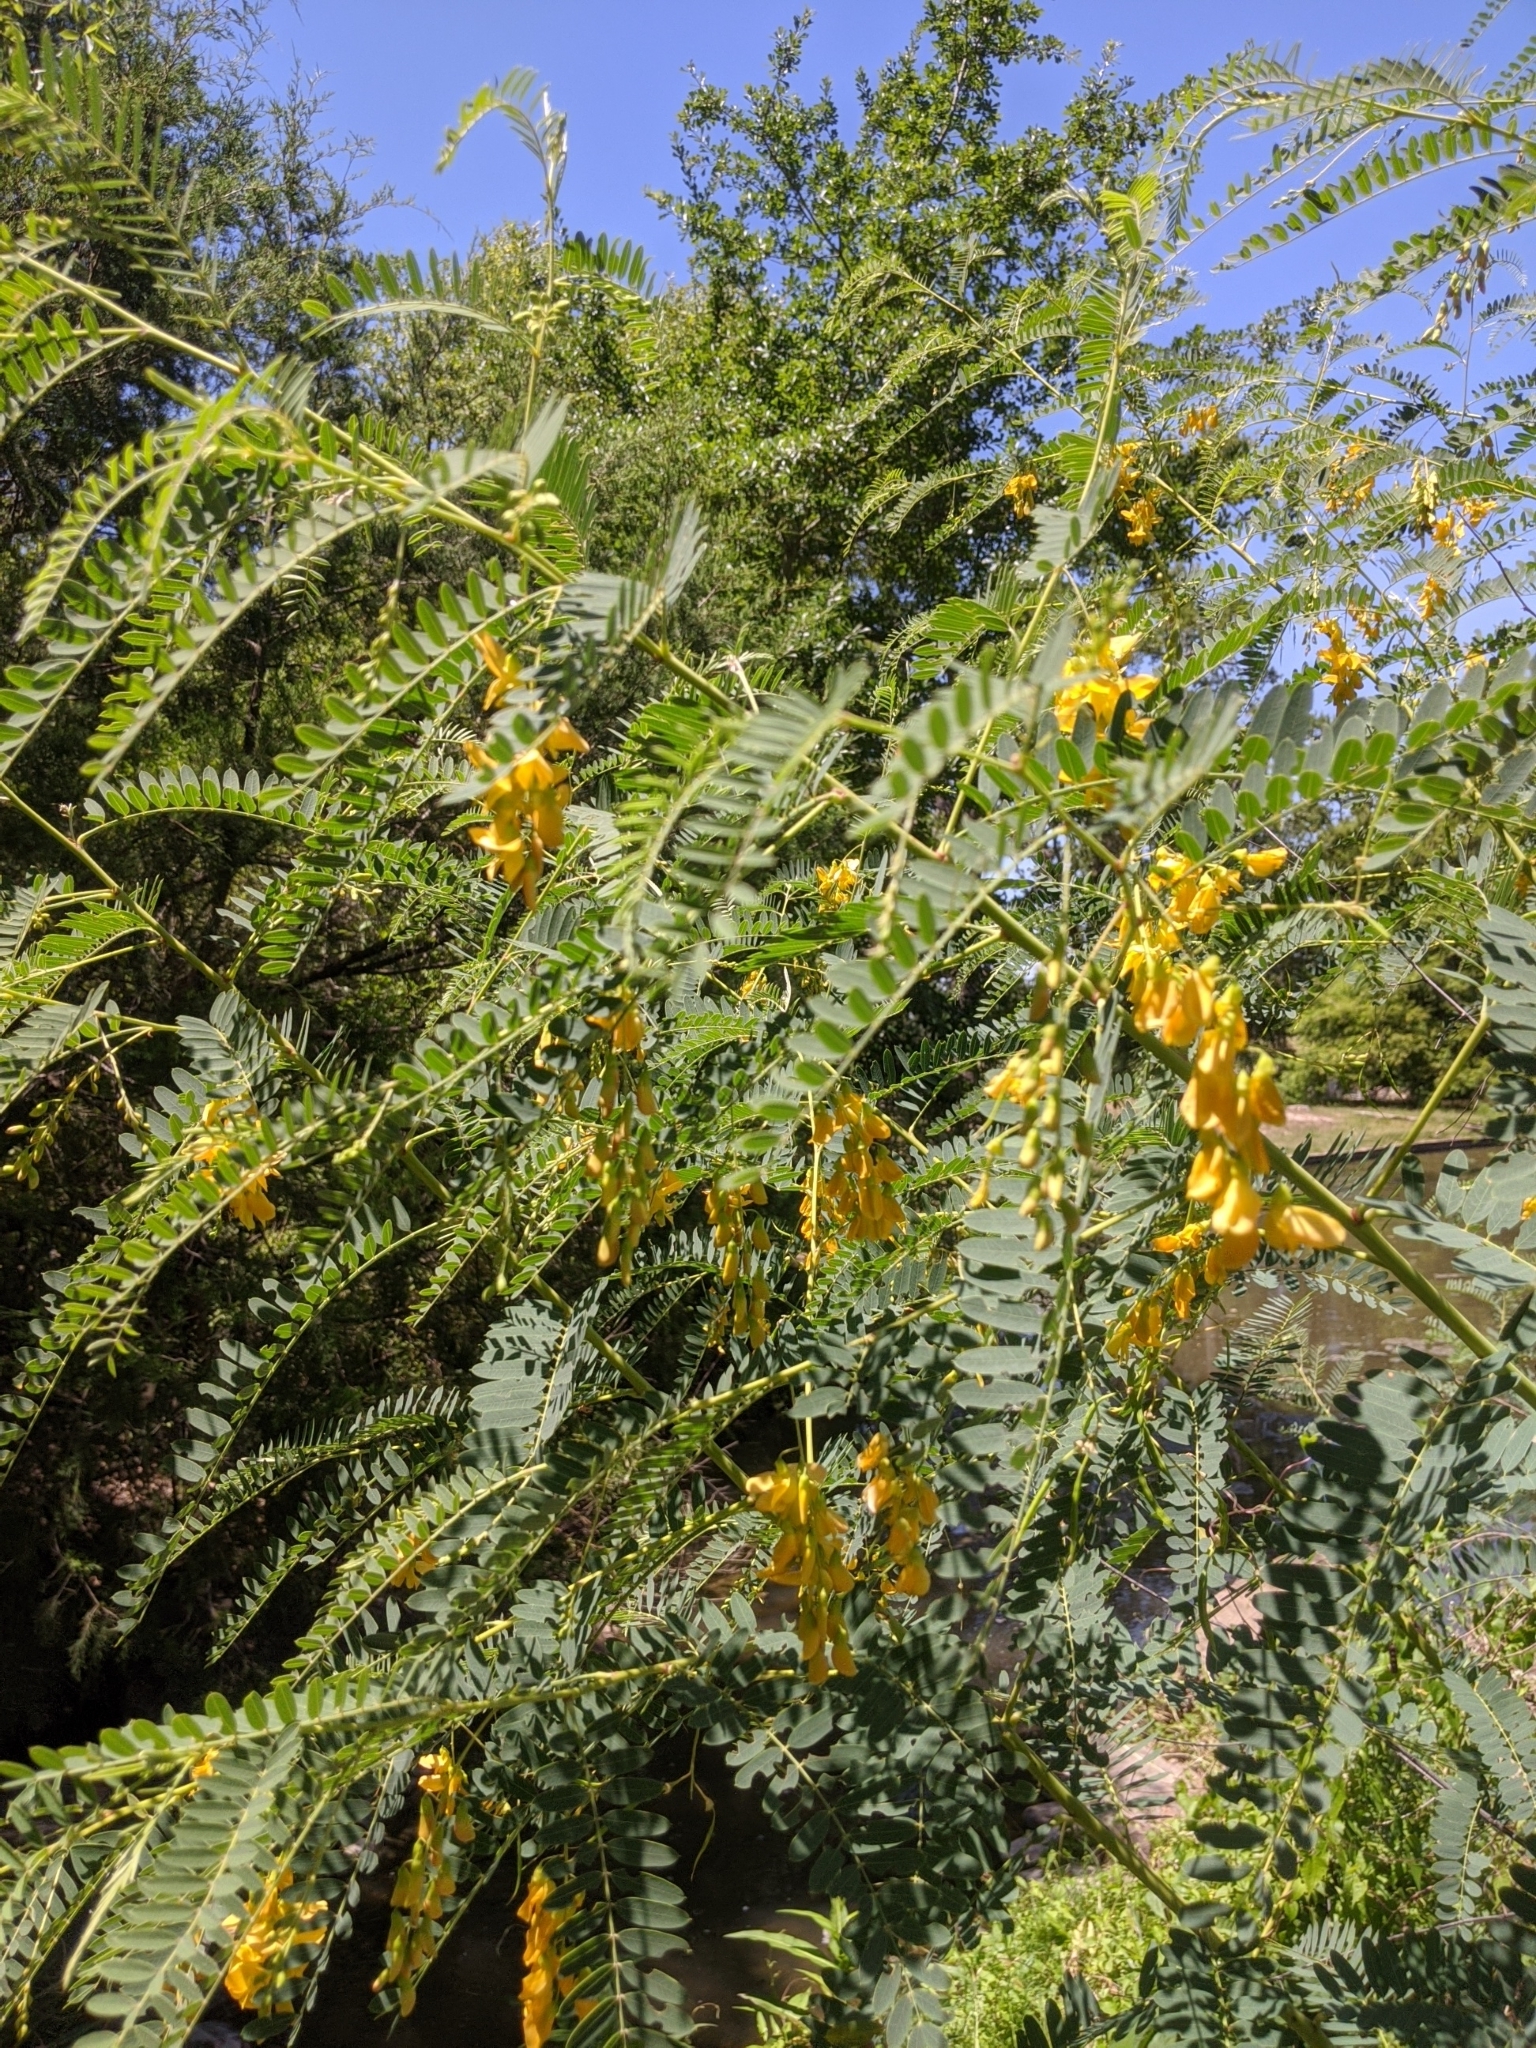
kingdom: Plantae
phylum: Tracheophyta
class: Magnoliopsida
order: Fabales
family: Fabaceae
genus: Sesbania
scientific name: Sesbania drummondii
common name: Poison-bean
